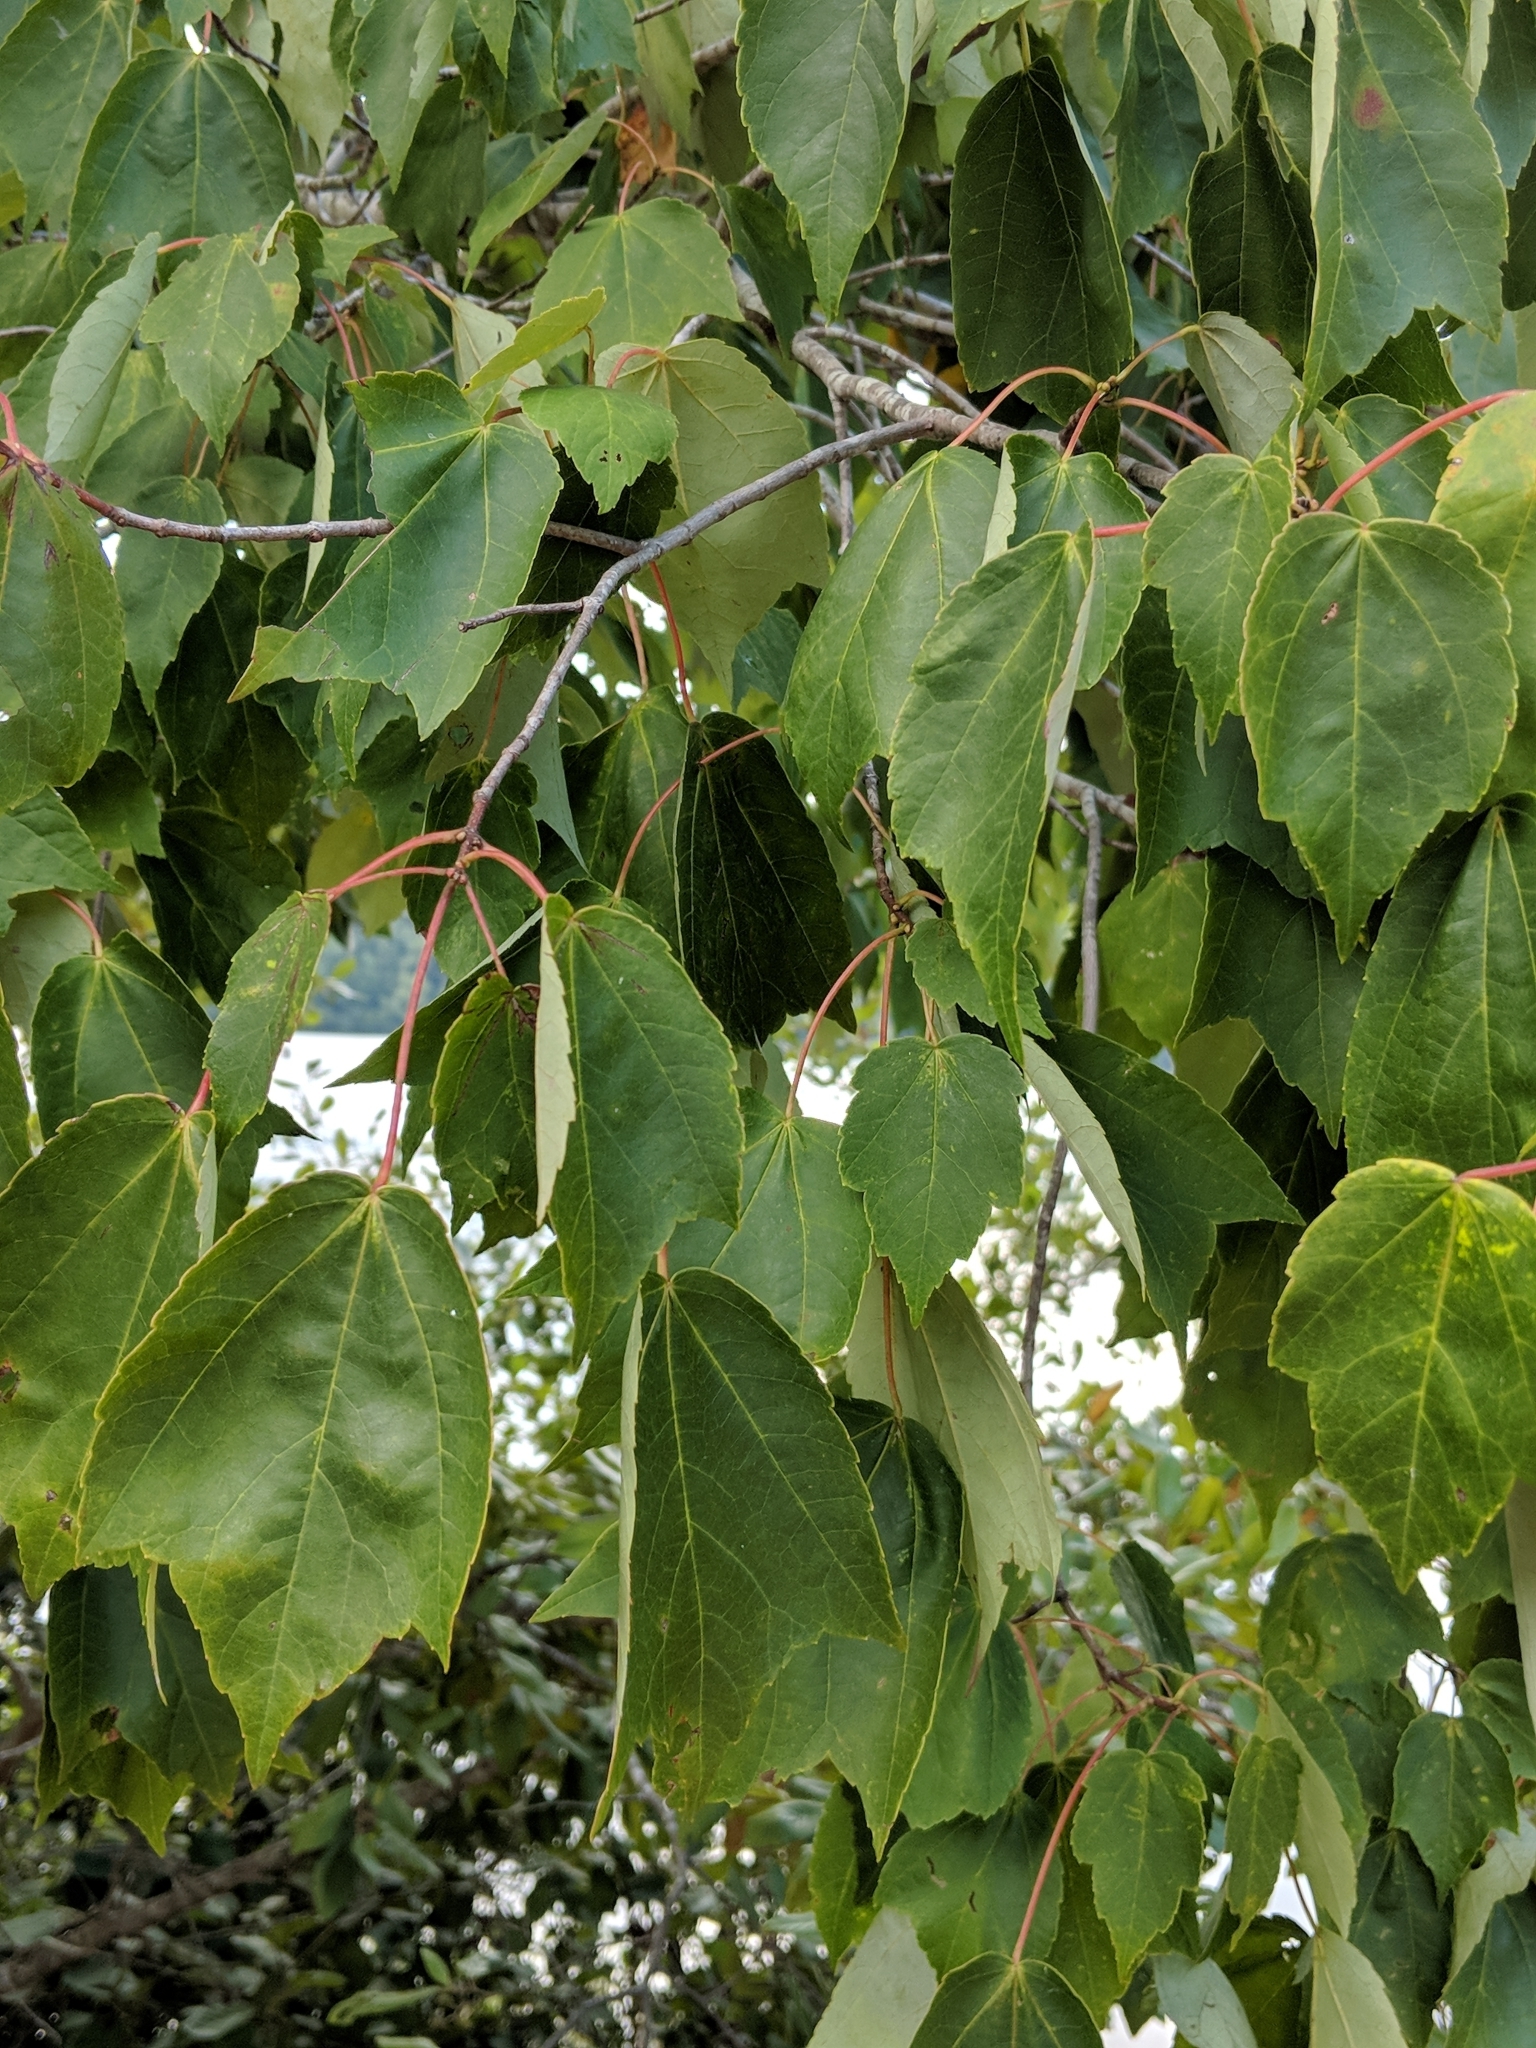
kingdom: Plantae
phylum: Tracheophyta
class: Magnoliopsida
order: Sapindales
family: Sapindaceae
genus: Acer
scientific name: Acer rubrum
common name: Red maple
